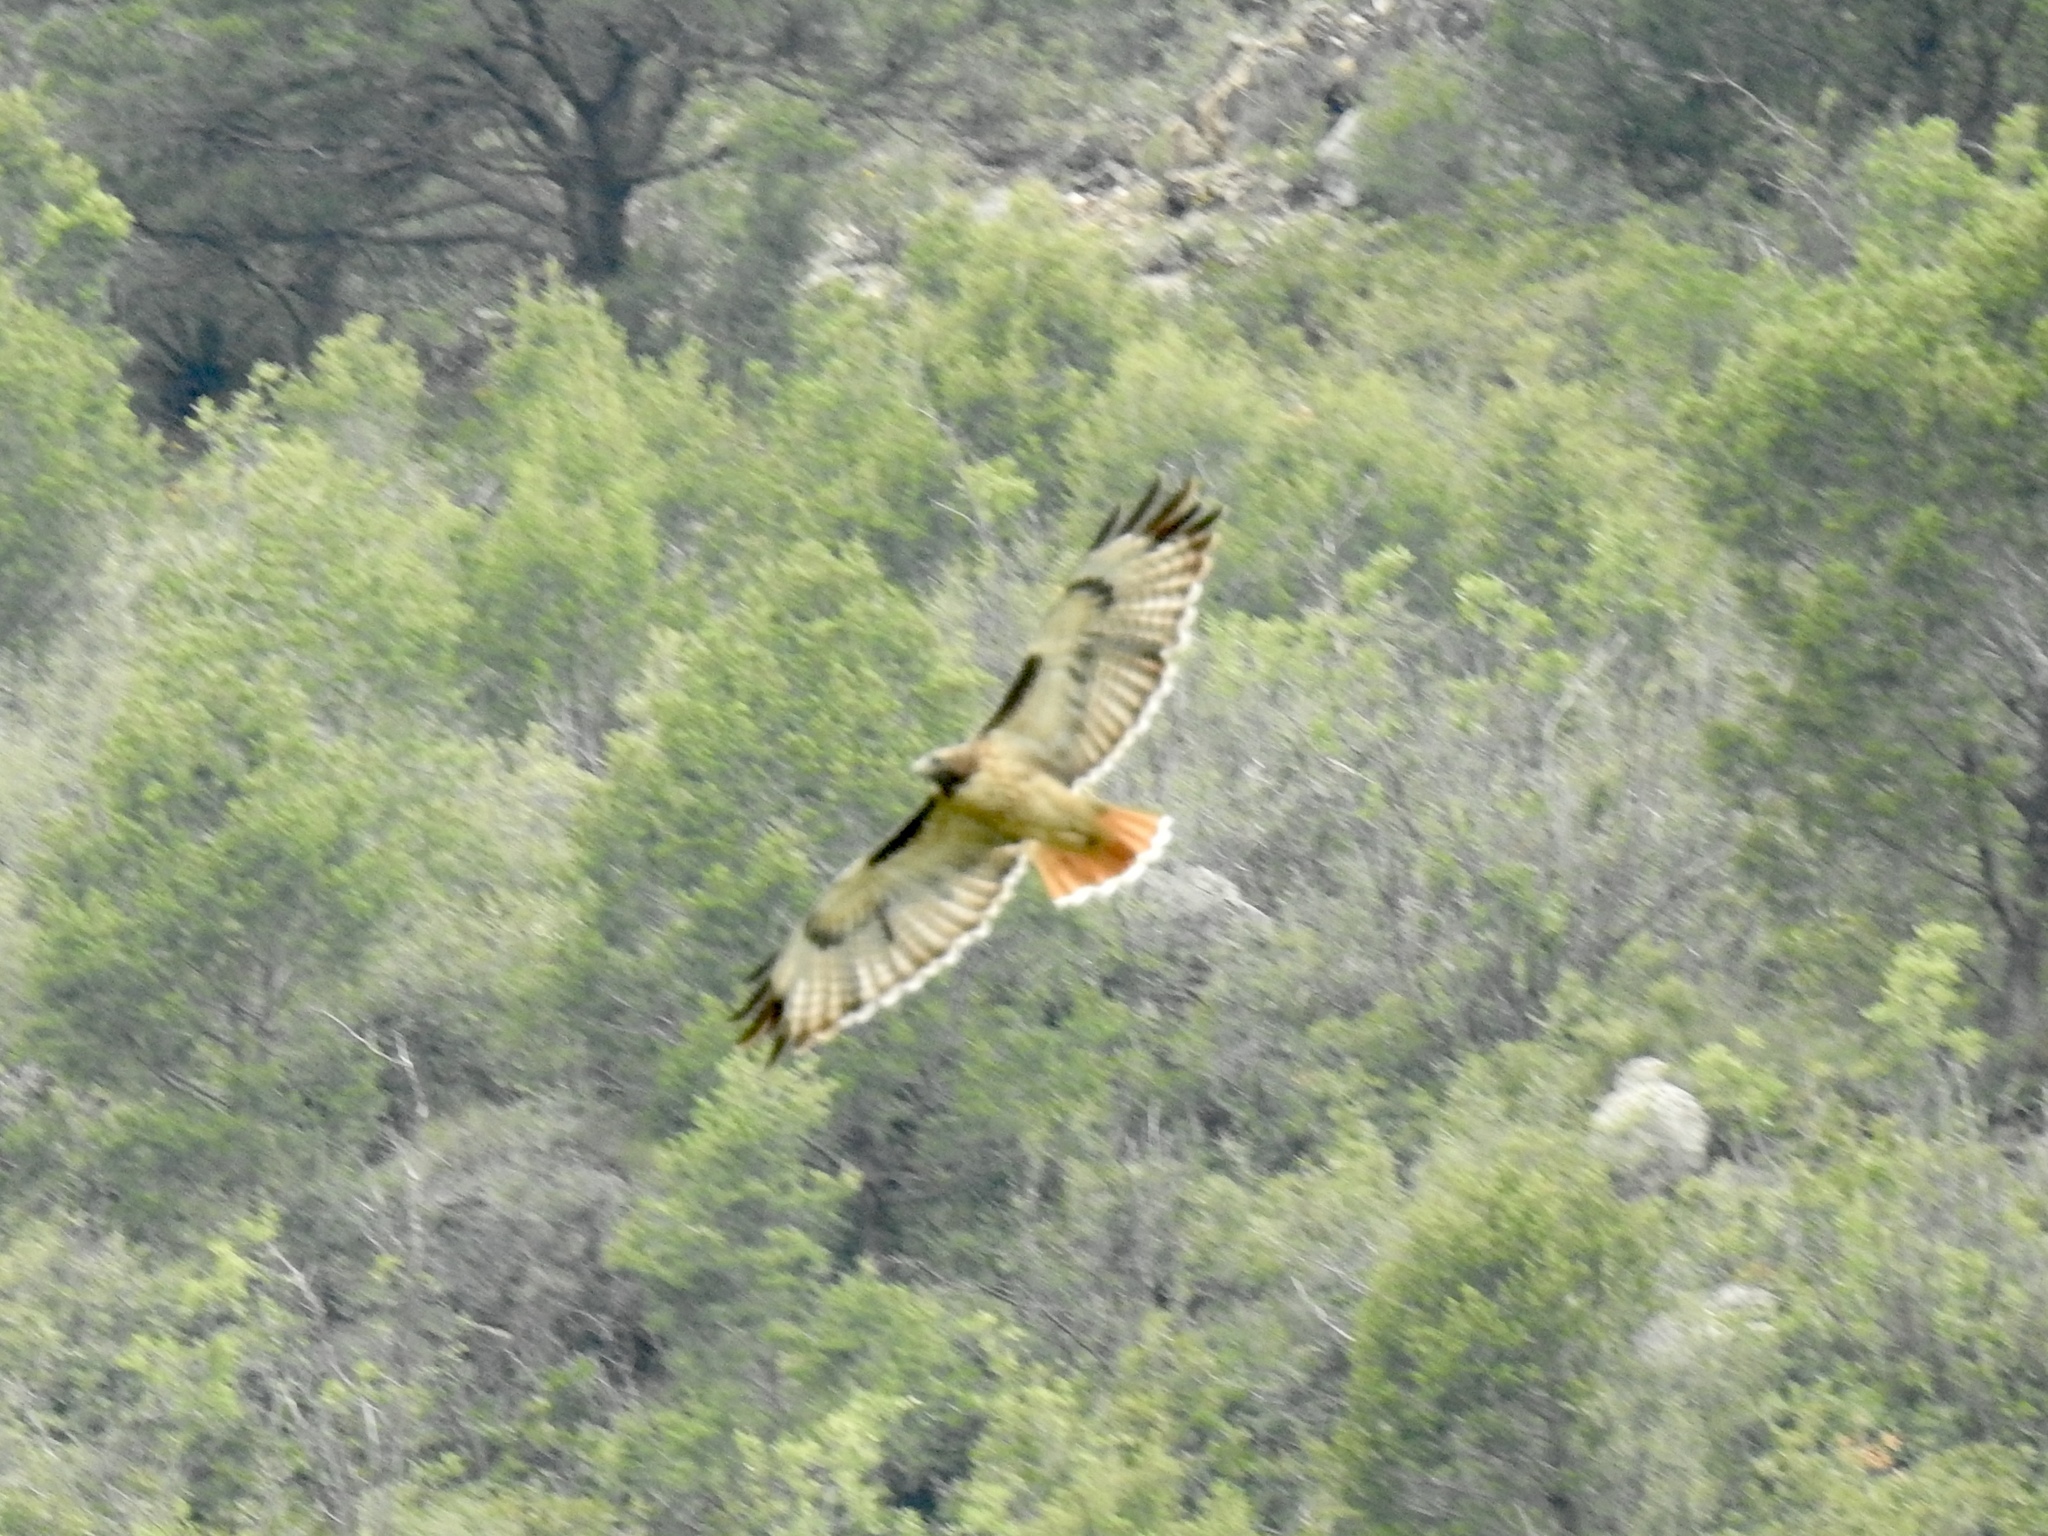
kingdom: Animalia
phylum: Chordata
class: Aves
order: Accipitriformes
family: Accipitridae
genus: Buteo
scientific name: Buteo jamaicensis
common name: Red-tailed hawk
